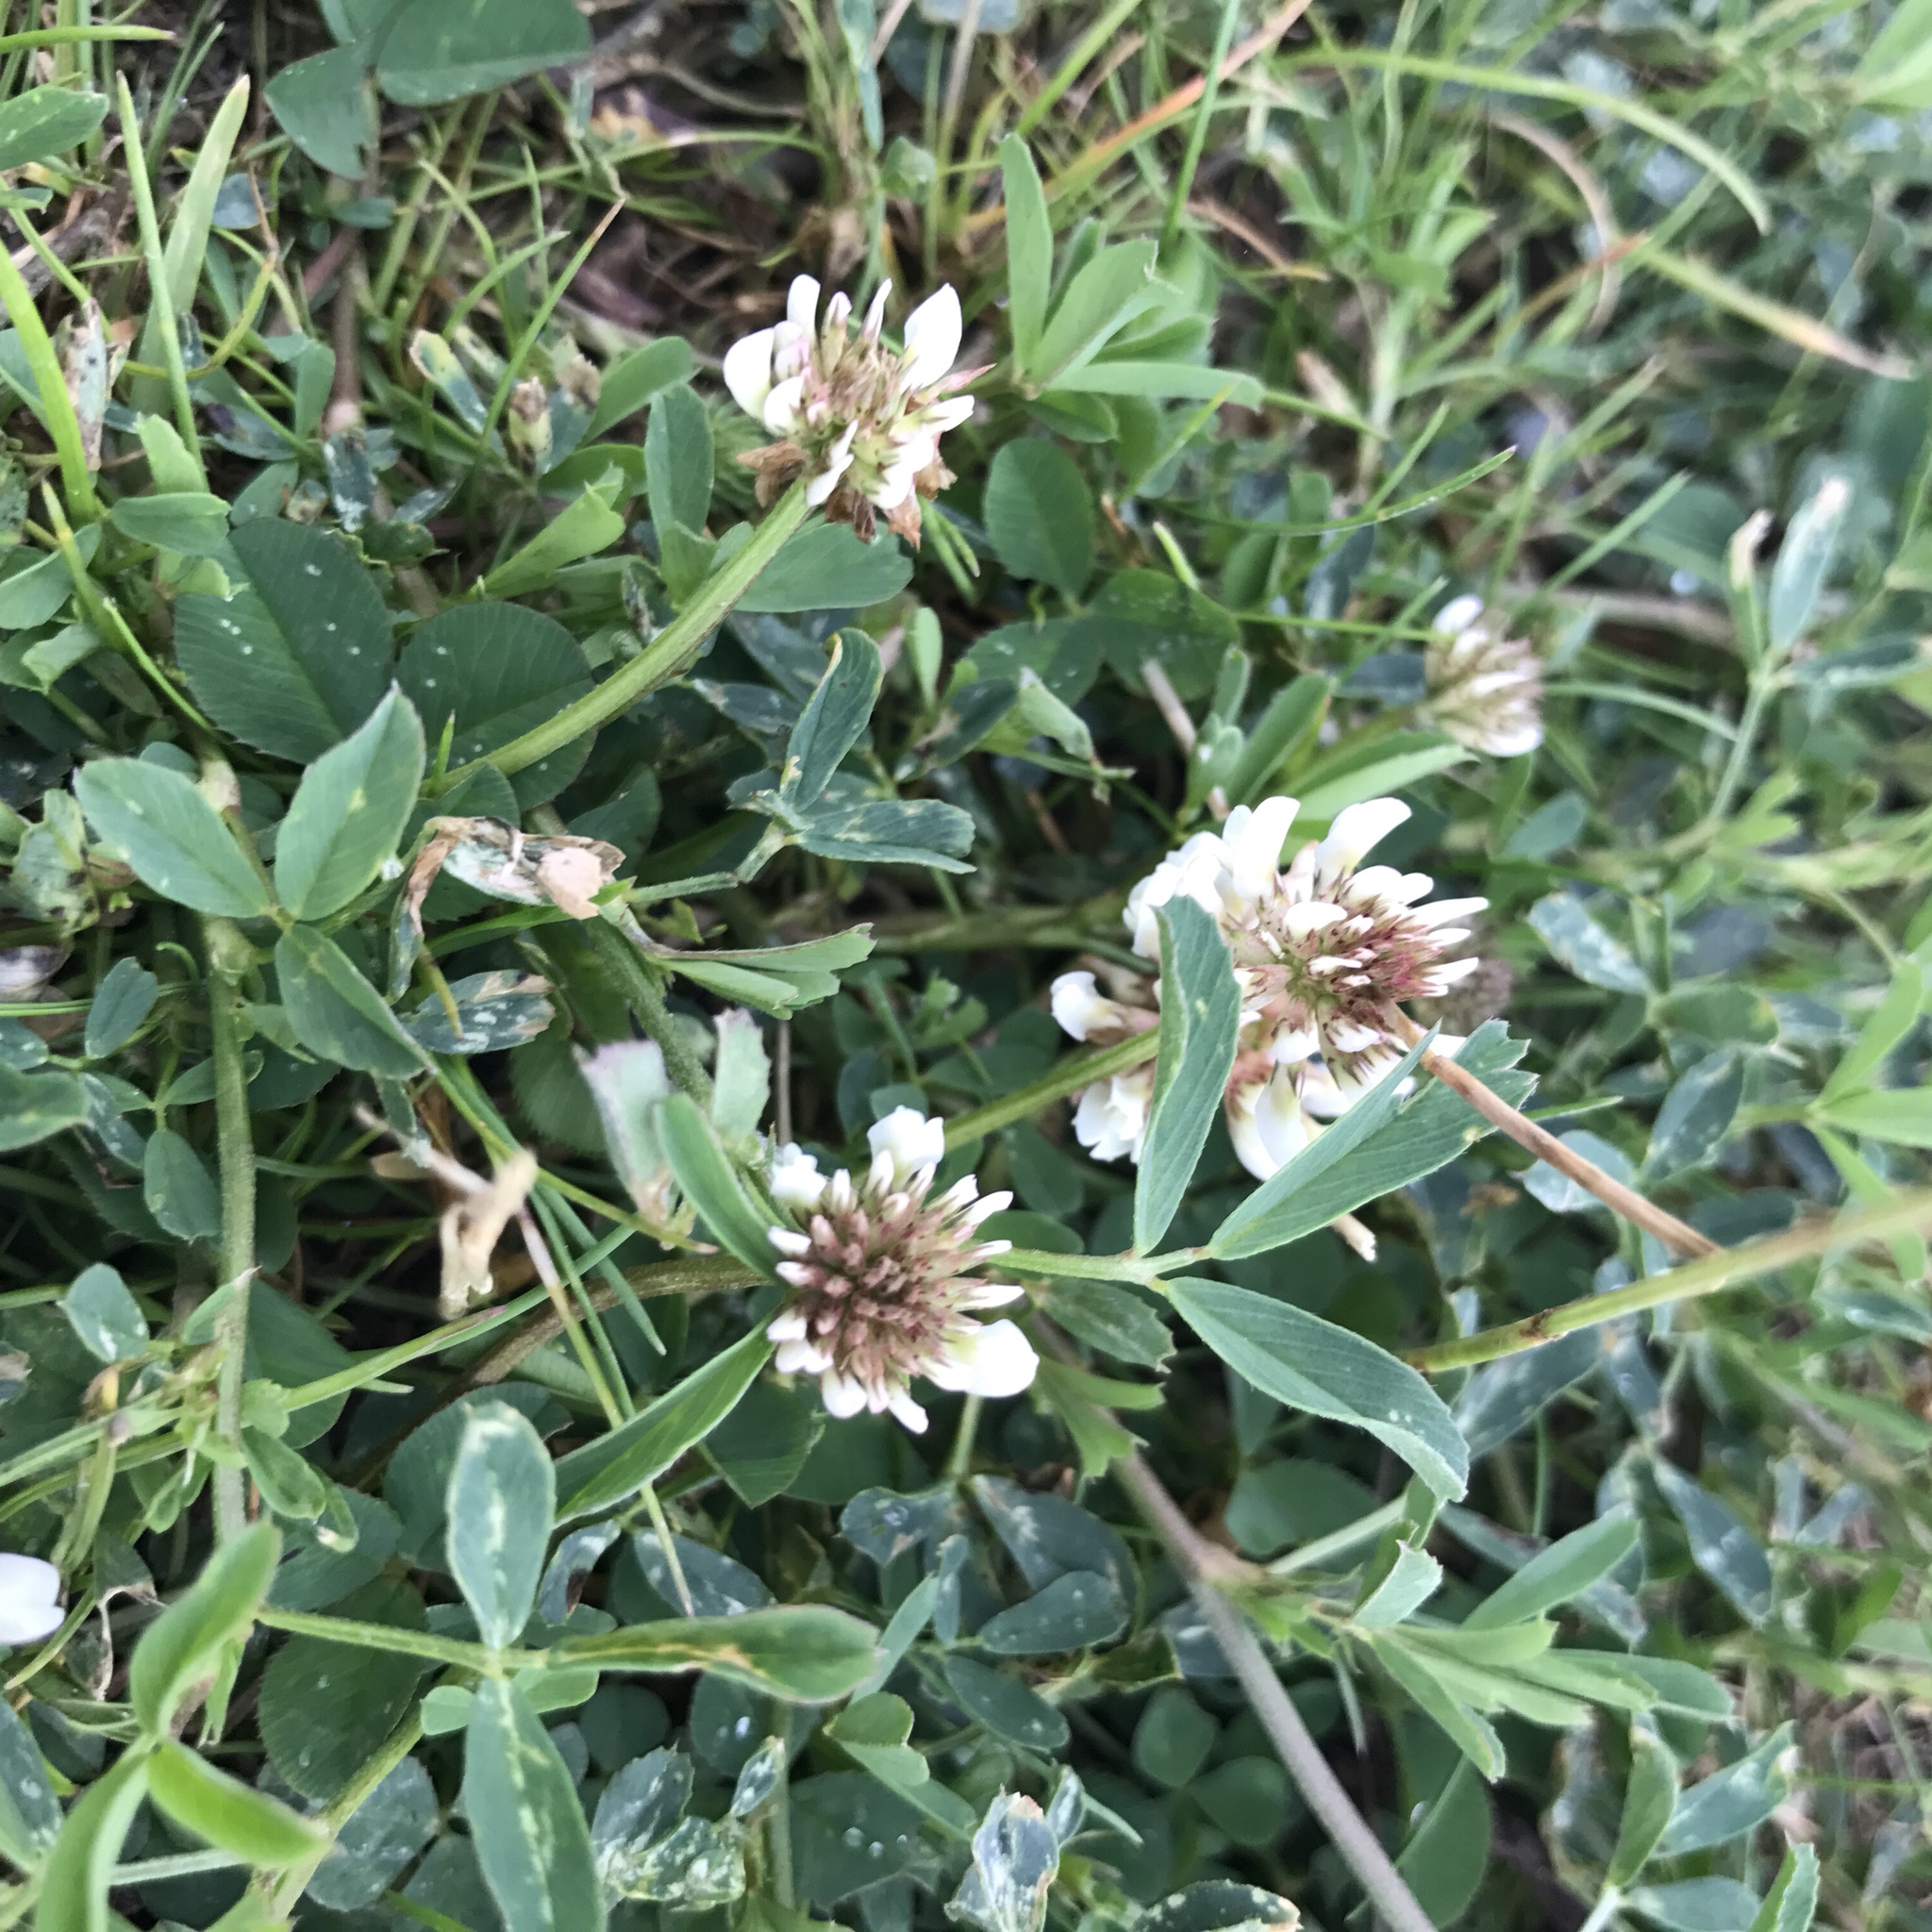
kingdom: Plantae
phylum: Tracheophyta
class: Magnoliopsida
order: Fabales
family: Fabaceae
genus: Trifolium
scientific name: Trifolium repens
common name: White clover
